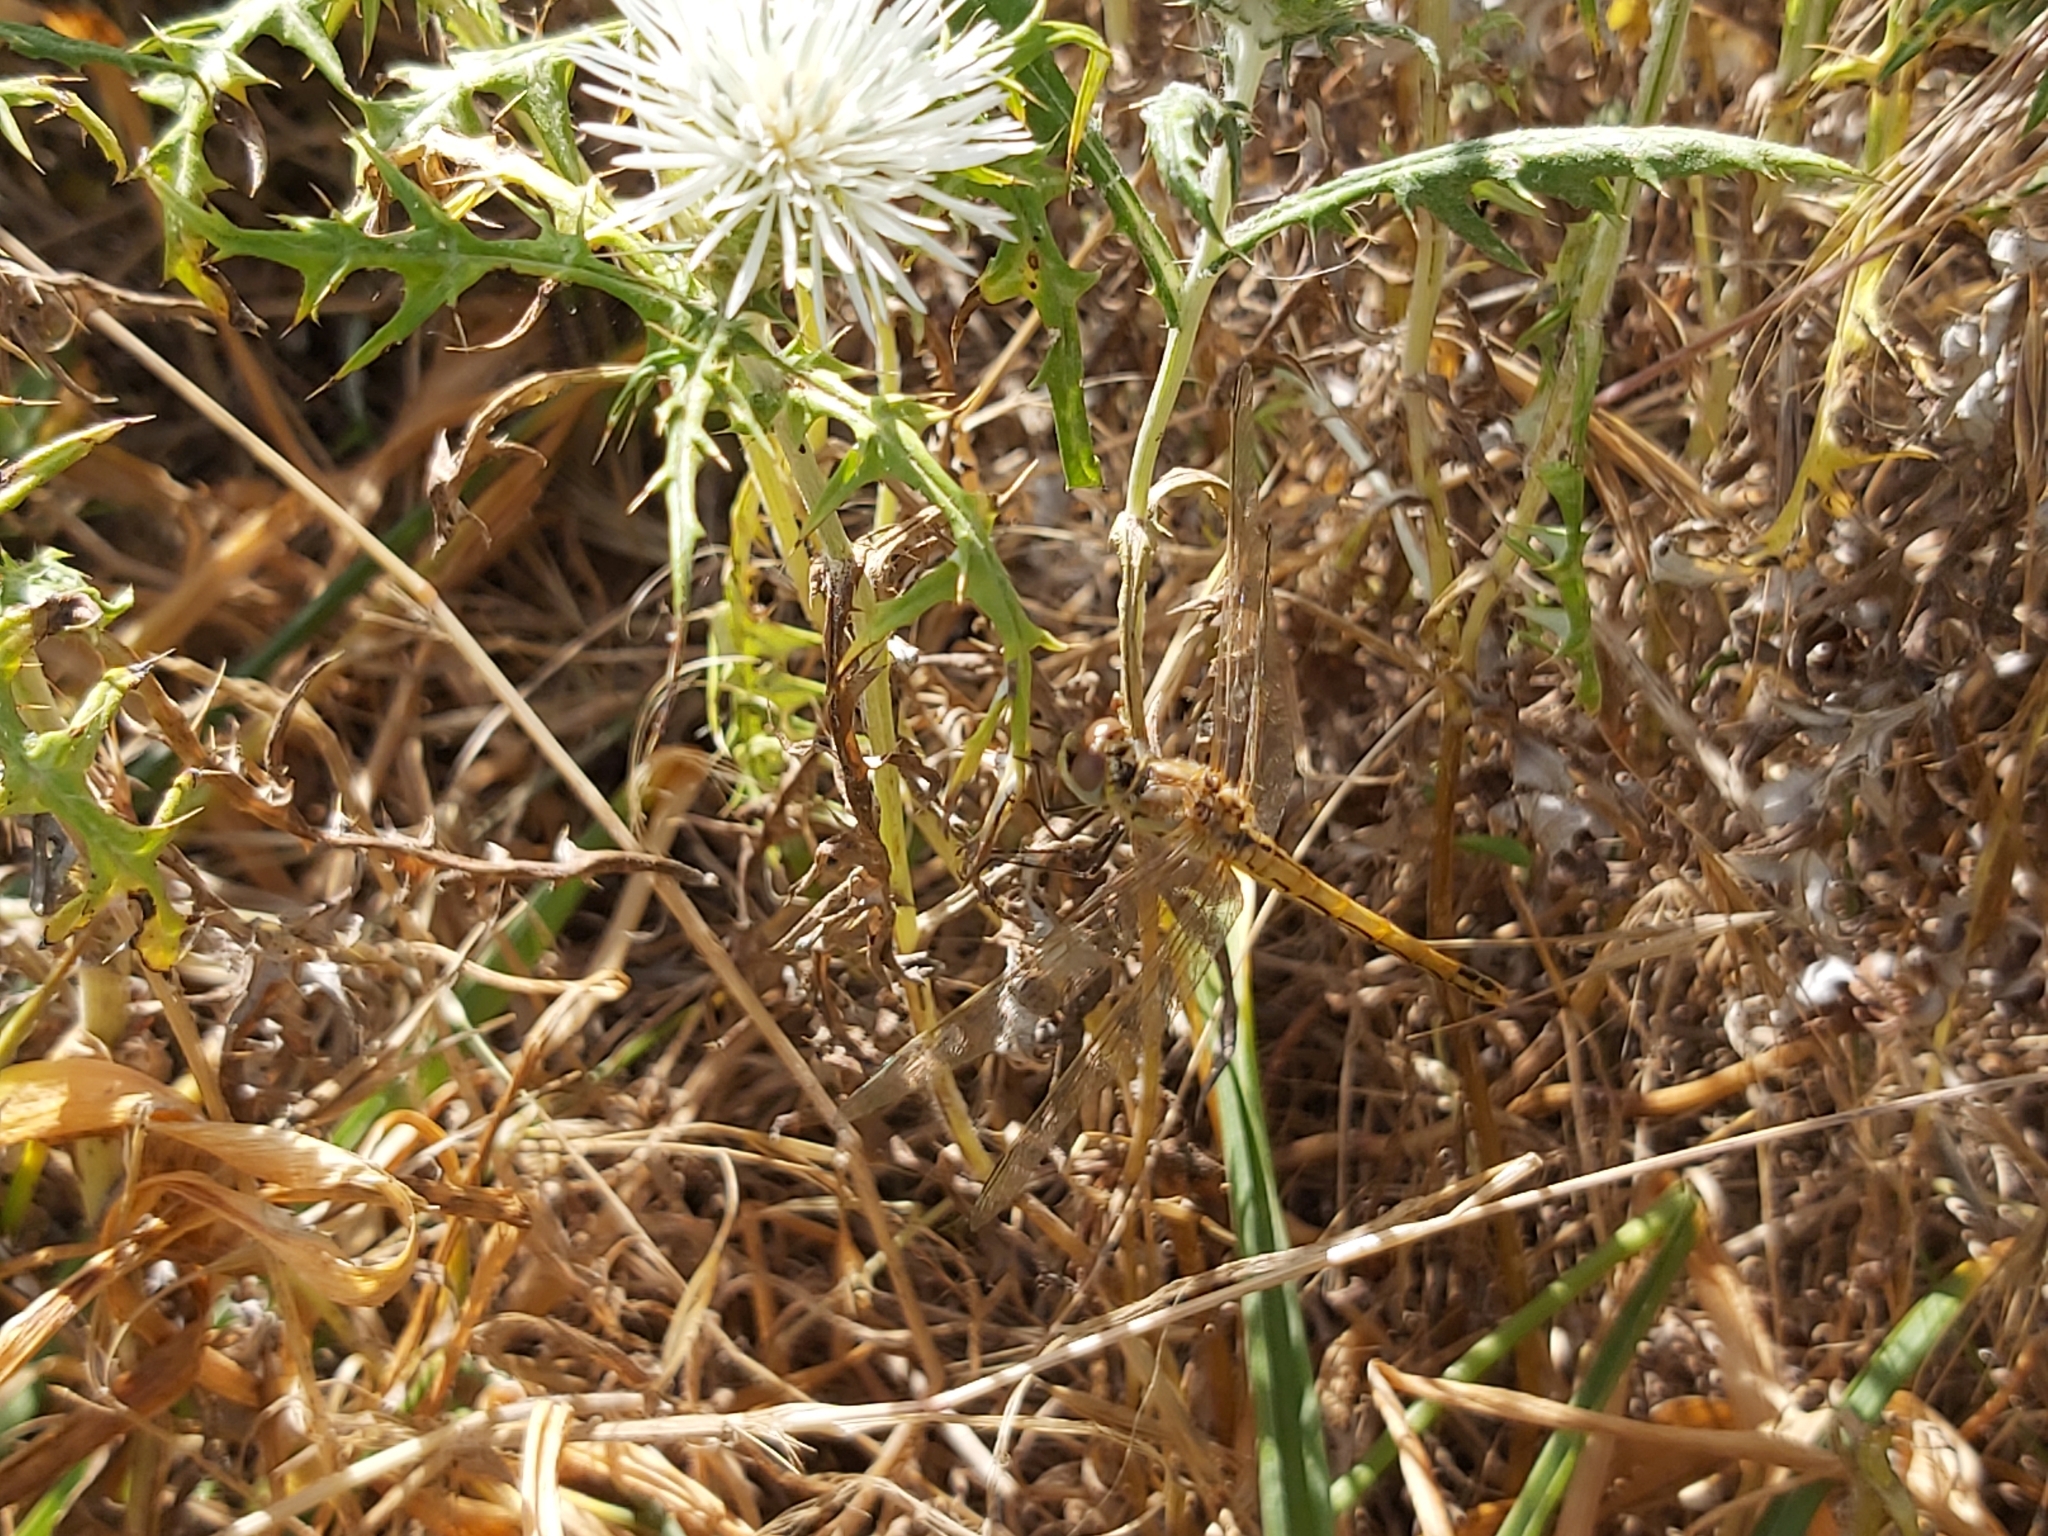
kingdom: Animalia
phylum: Arthropoda
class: Insecta
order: Odonata
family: Libellulidae
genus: Sympetrum
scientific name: Sympetrum fonscolombii
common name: Red-veined darter
